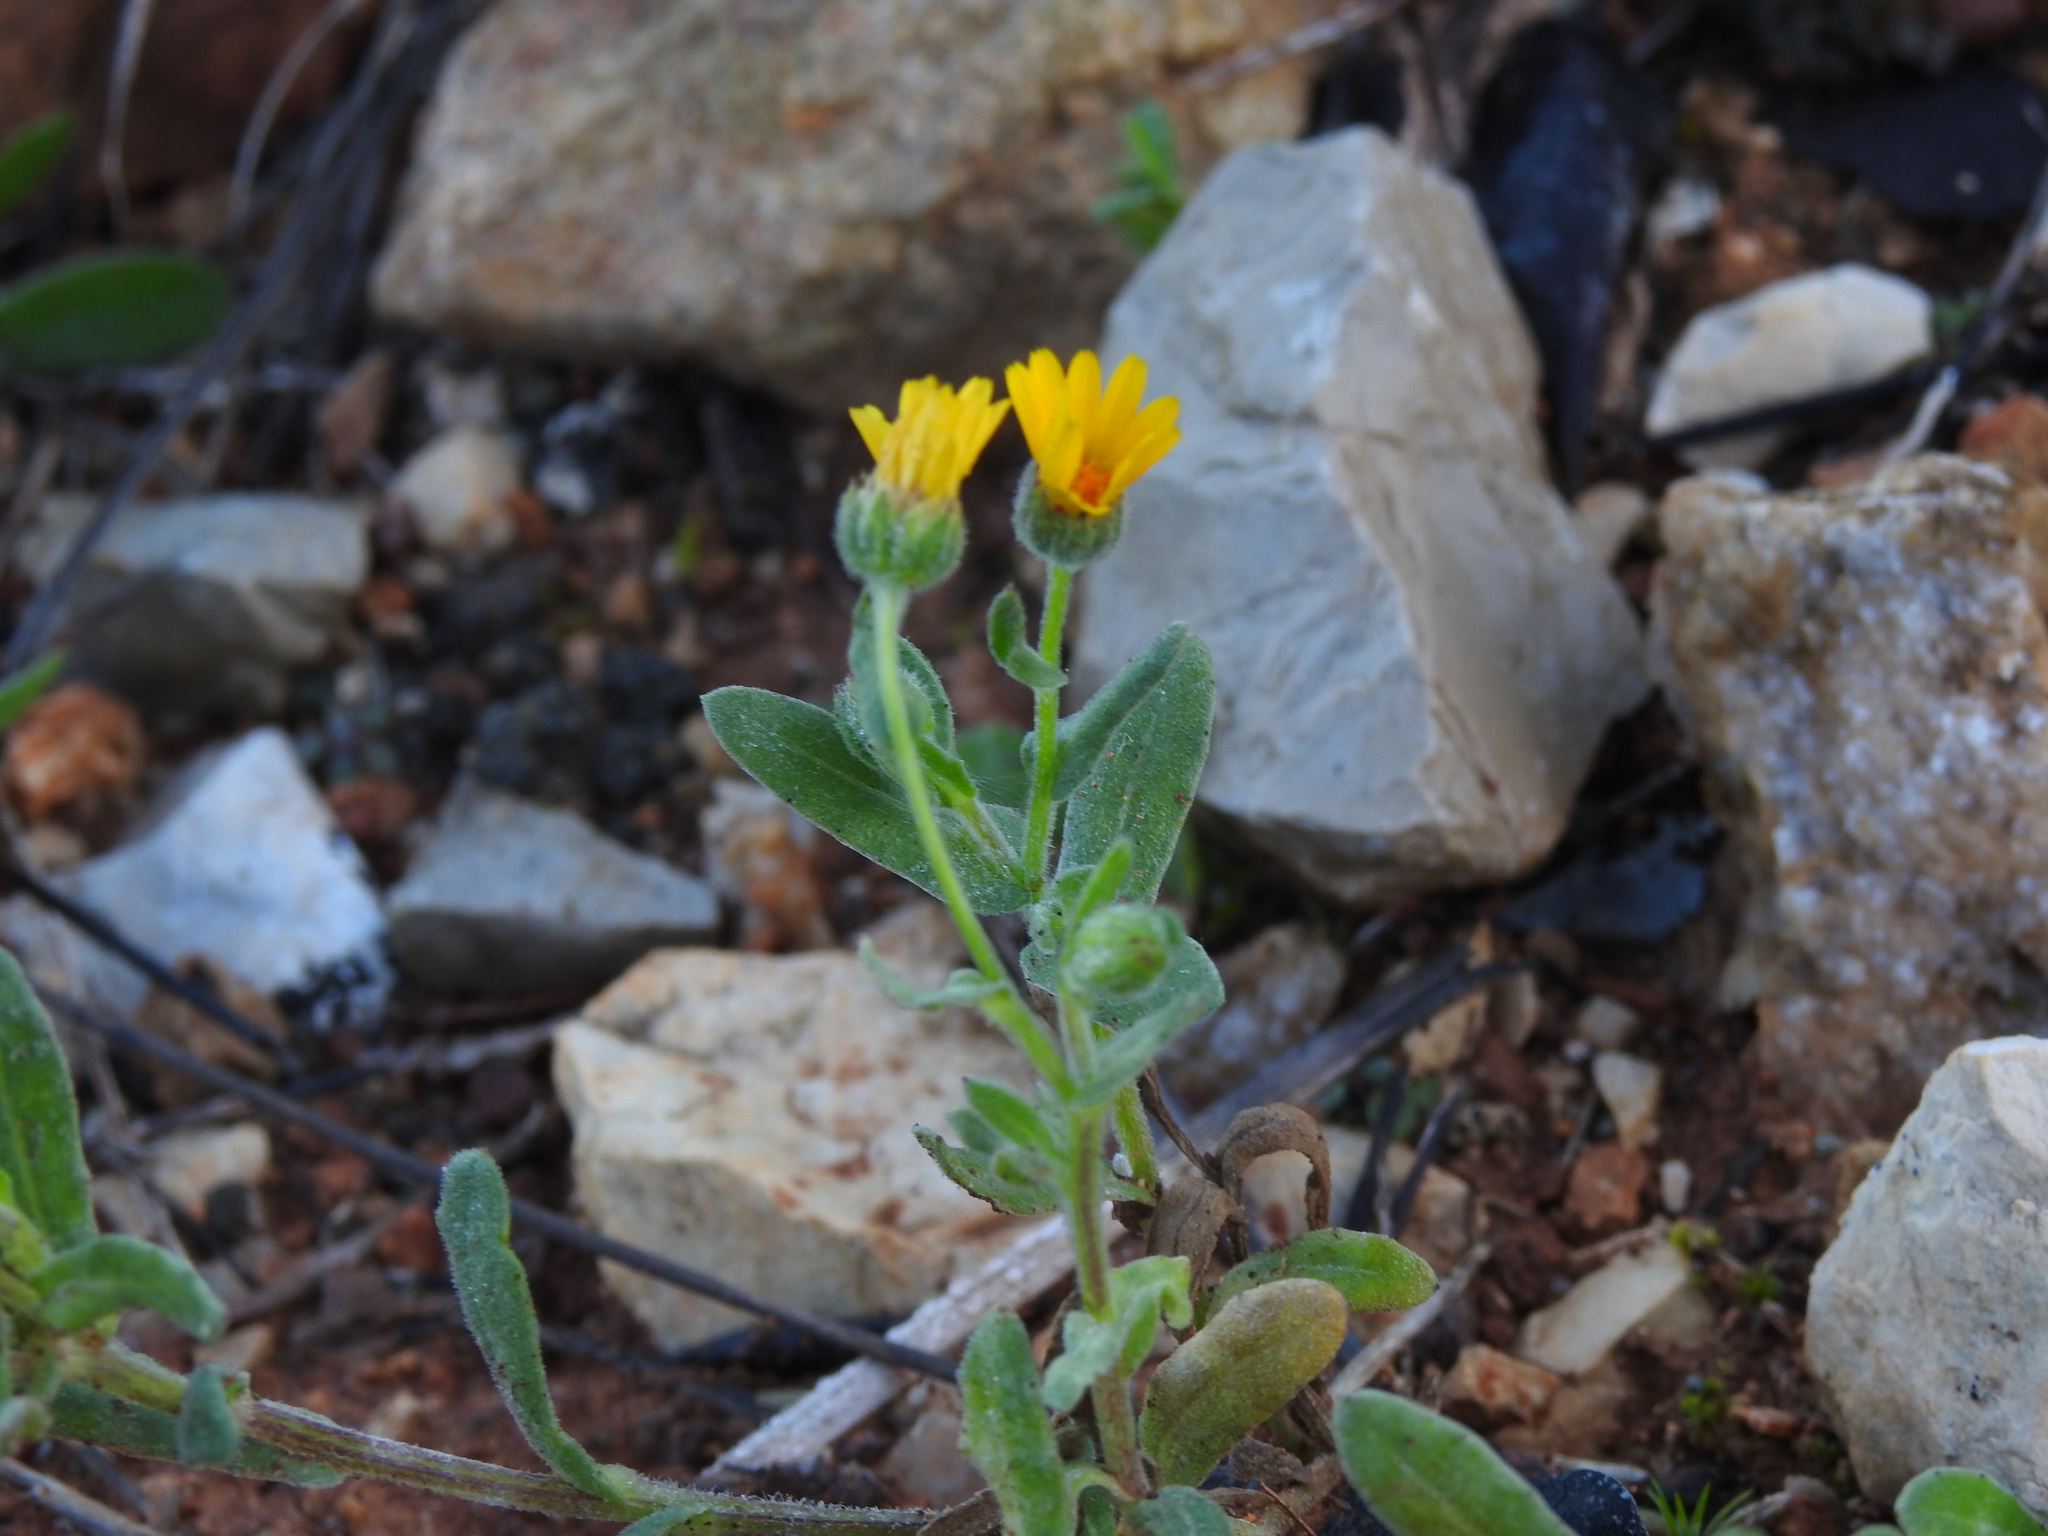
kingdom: Plantae
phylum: Tracheophyta
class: Magnoliopsida
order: Asterales
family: Asteraceae
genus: Calendula
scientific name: Calendula arvensis
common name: Field marigold
